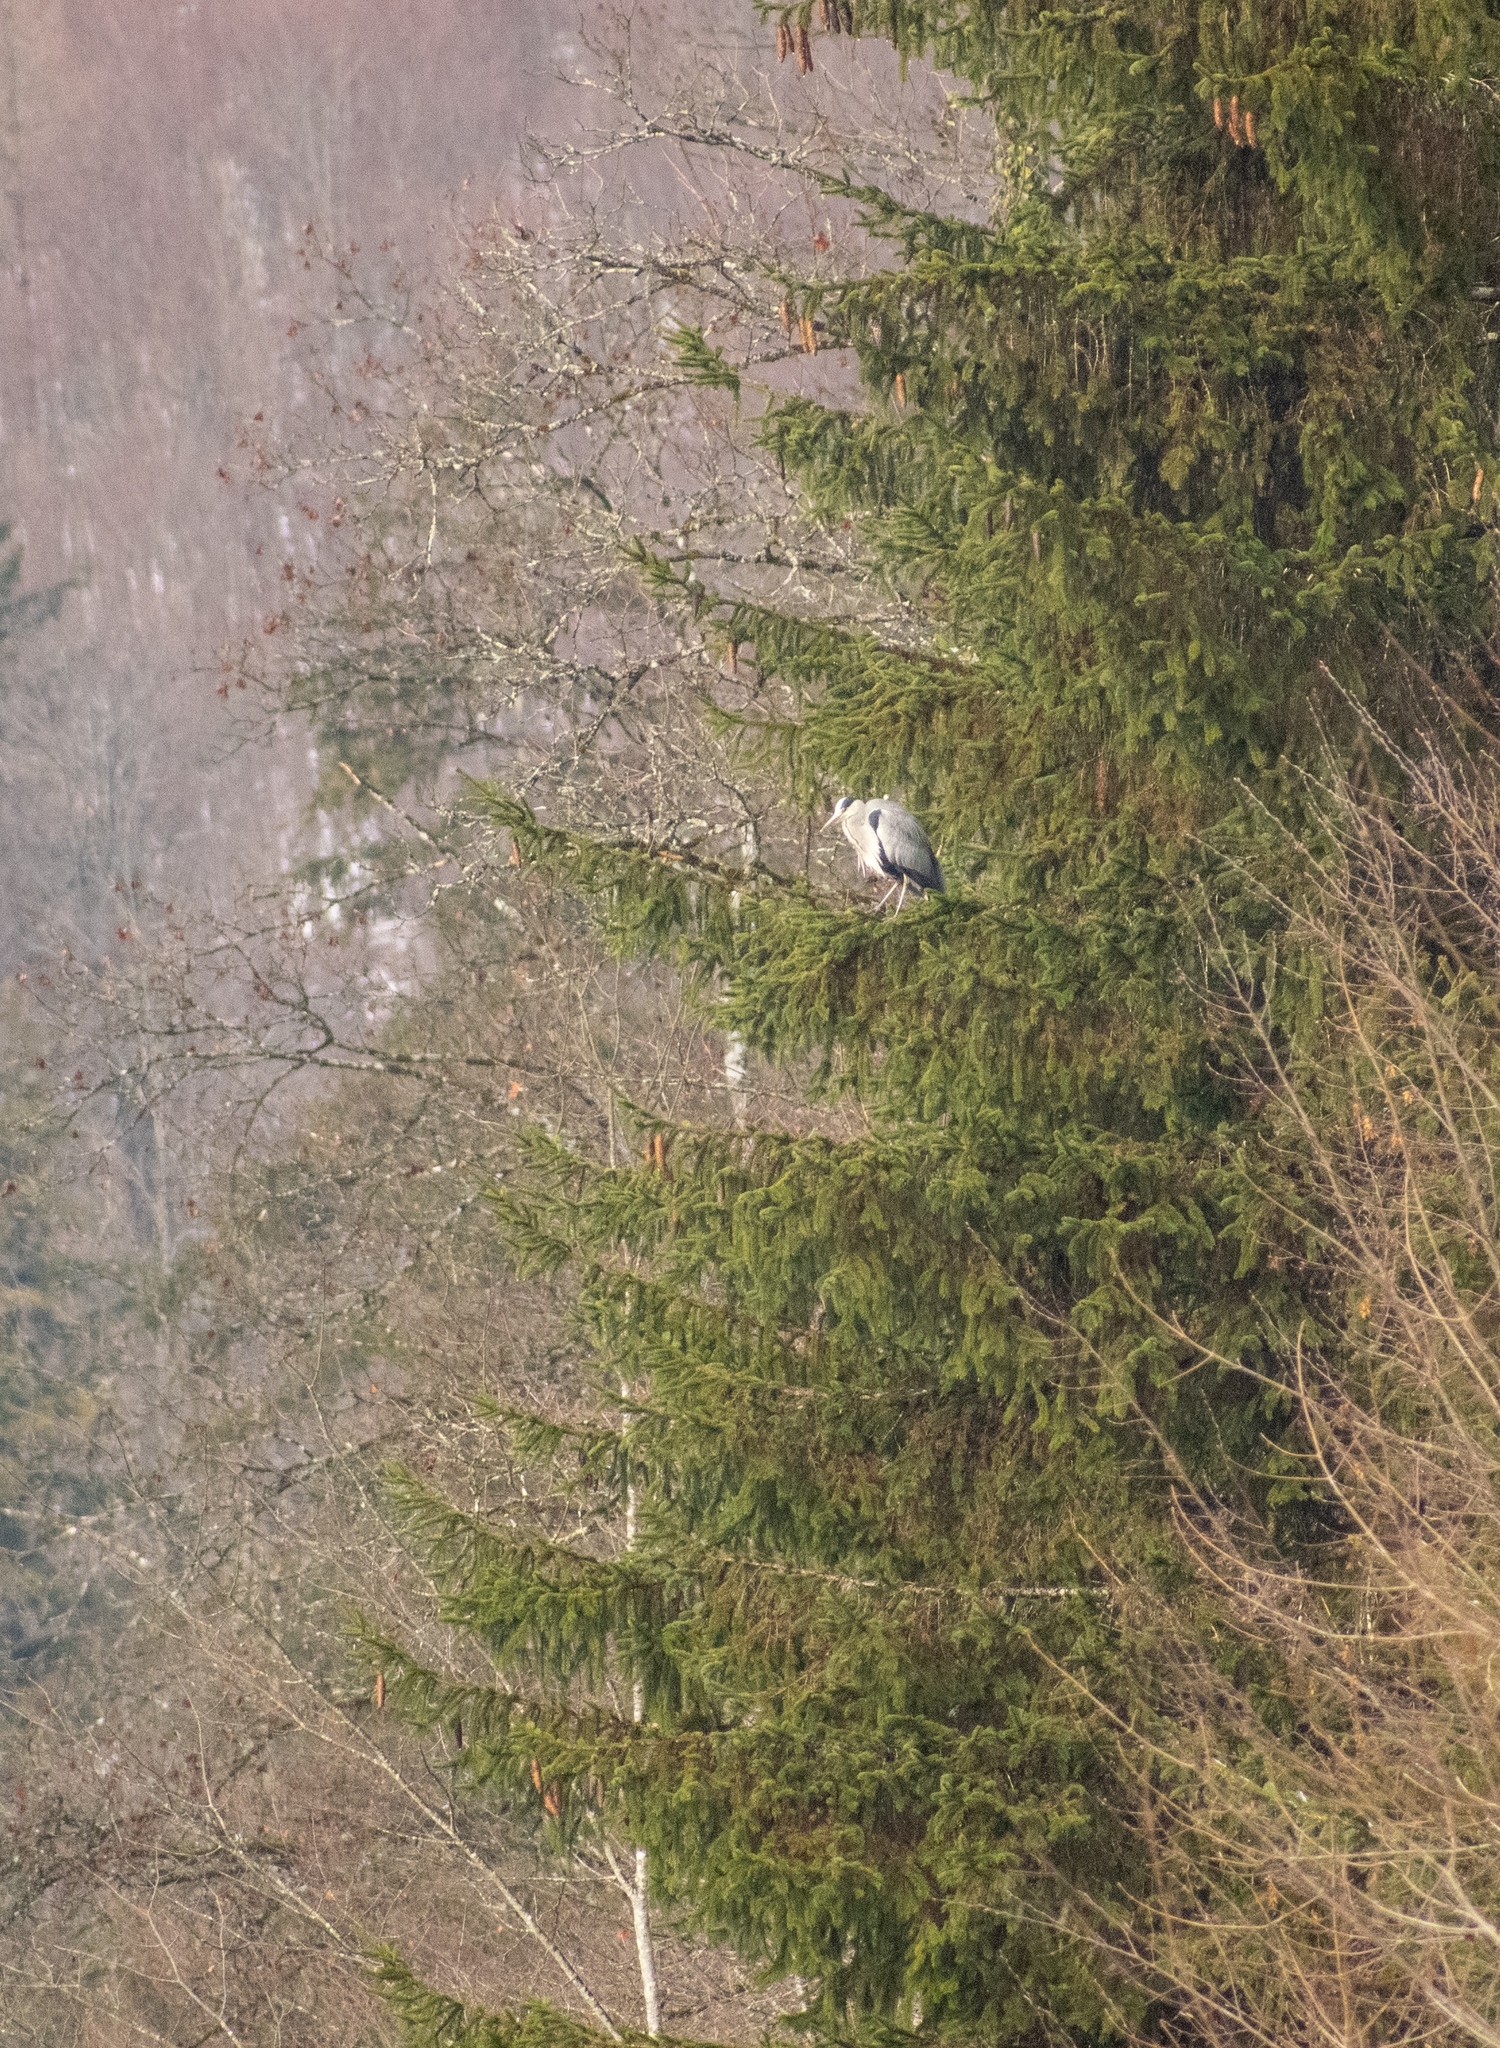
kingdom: Animalia
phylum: Chordata
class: Aves
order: Pelecaniformes
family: Ardeidae
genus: Ardea
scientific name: Ardea cinerea
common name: Grey heron
